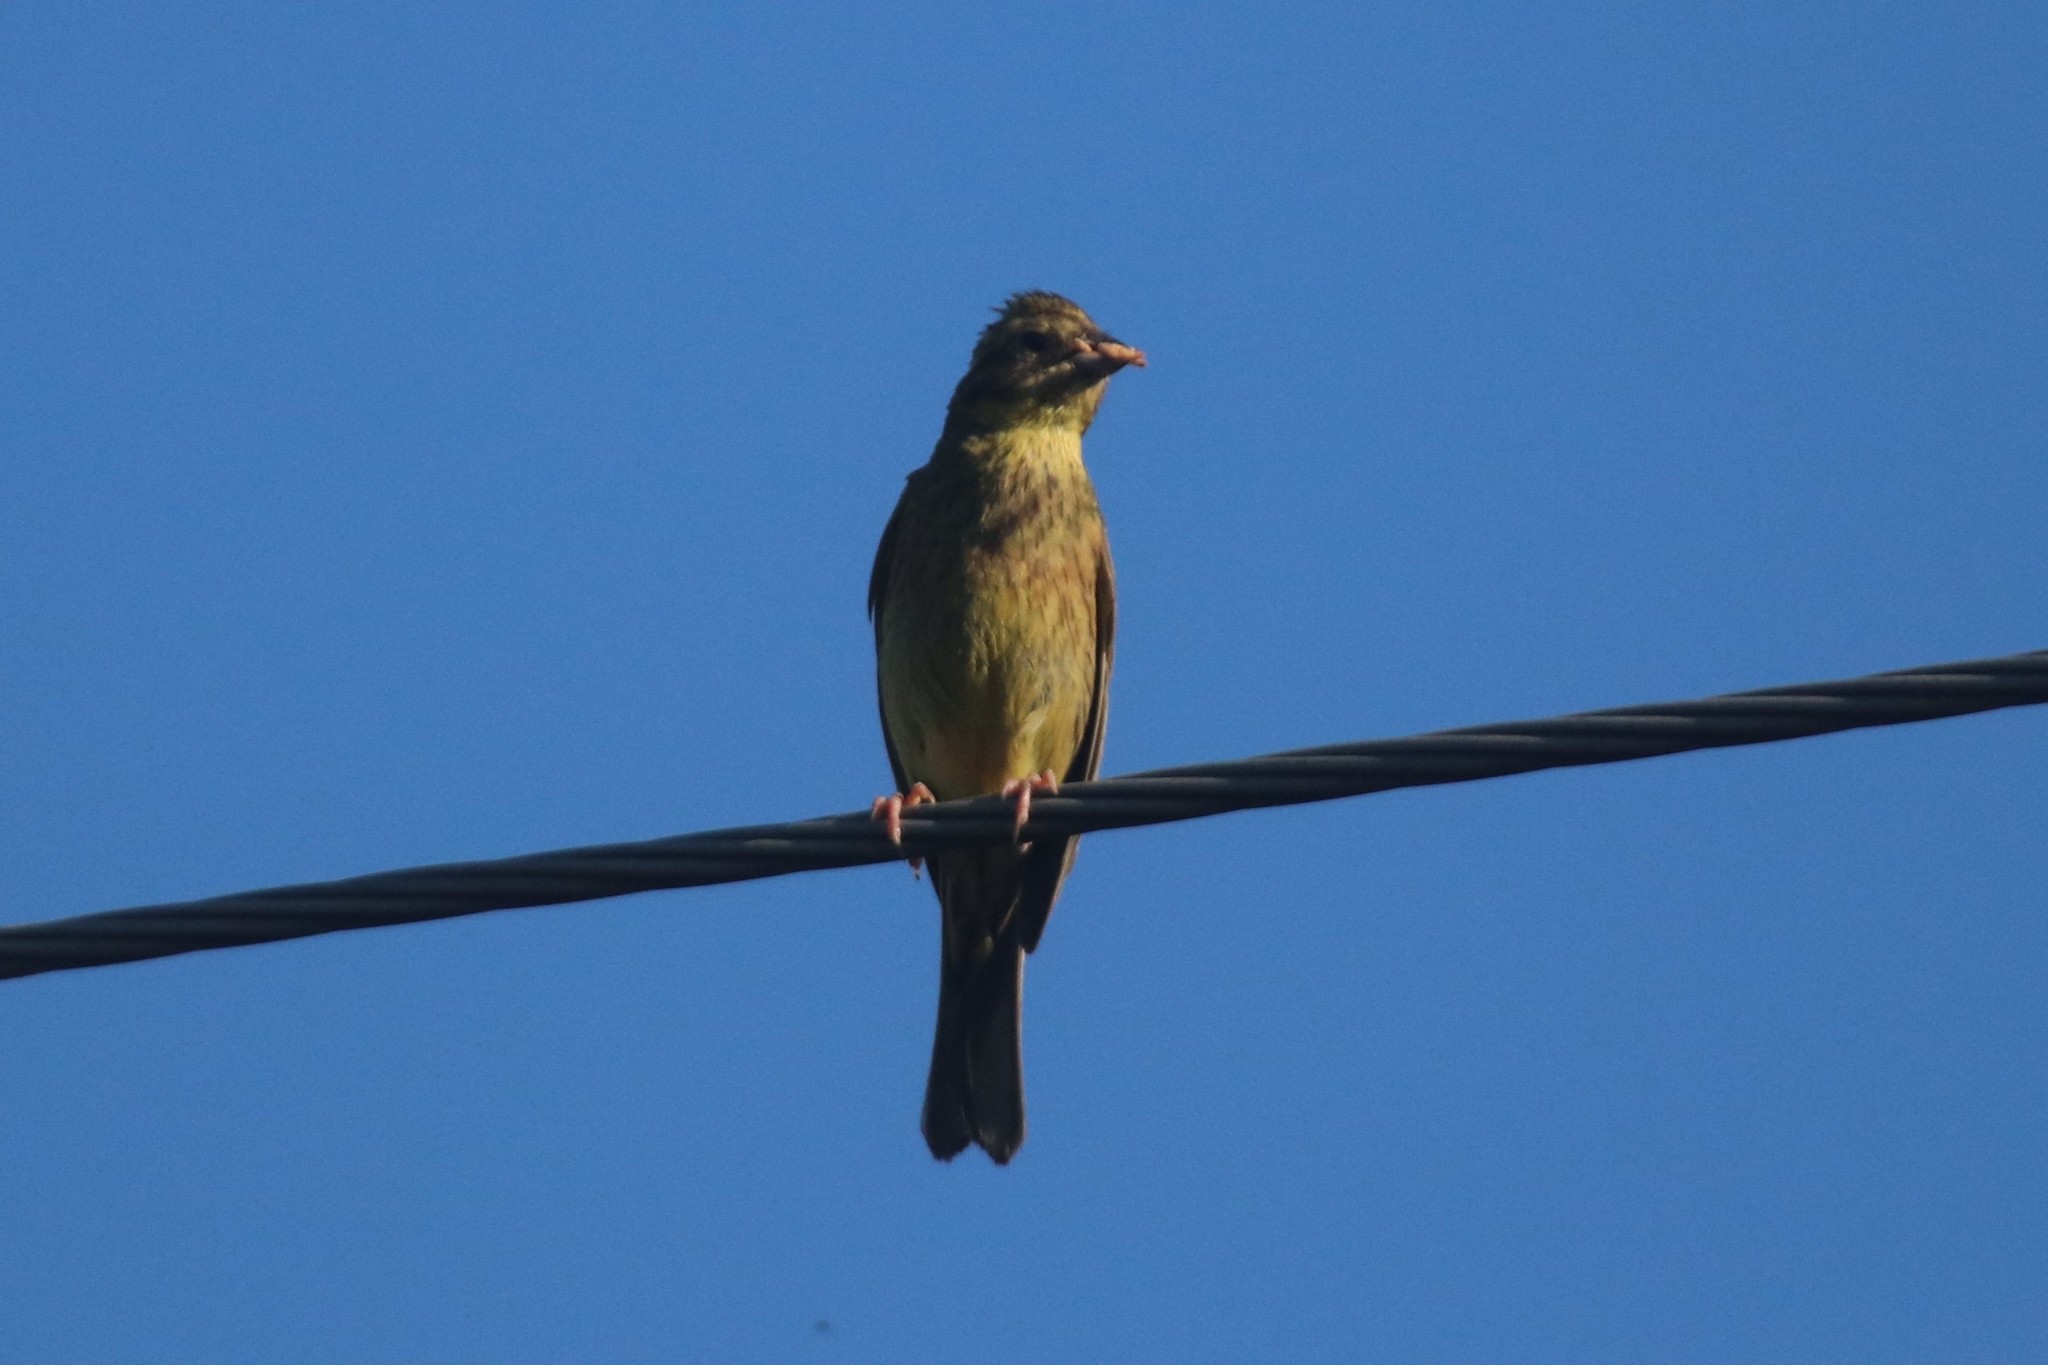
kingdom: Animalia
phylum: Chordata
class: Aves
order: Passeriformes
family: Emberizidae
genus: Emberiza
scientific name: Emberiza citrinella
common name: Yellowhammer
